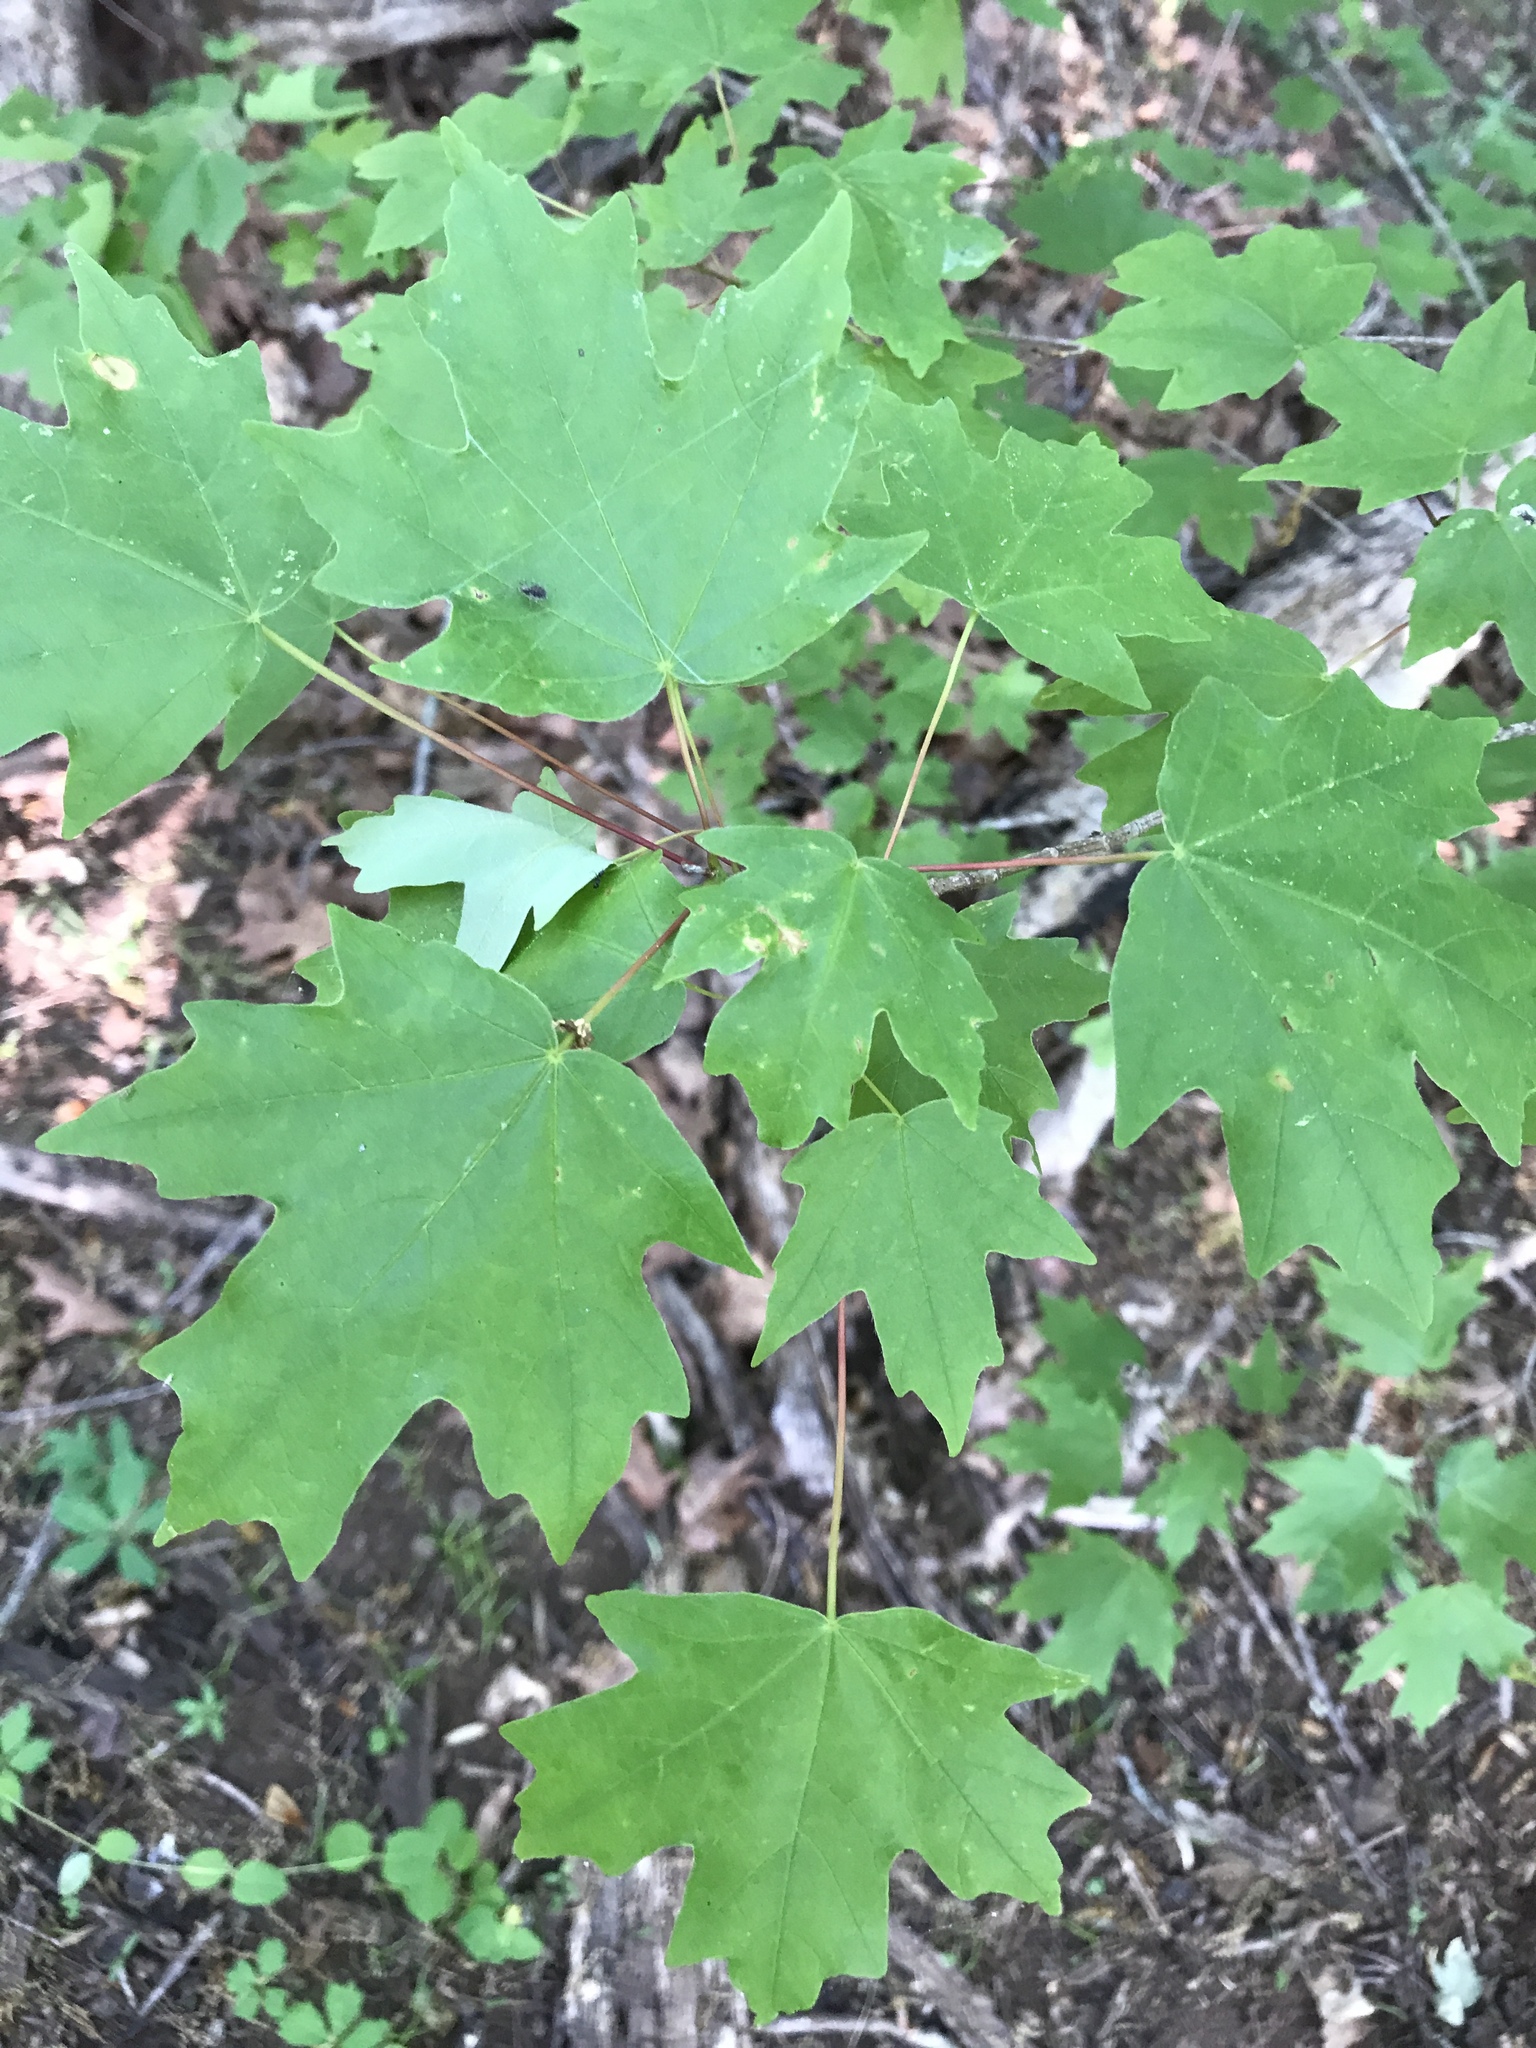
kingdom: Plantae
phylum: Tracheophyta
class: Magnoliopsida
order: Sapindales
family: Sapindaceae
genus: Acer
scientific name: Acer floridanum
